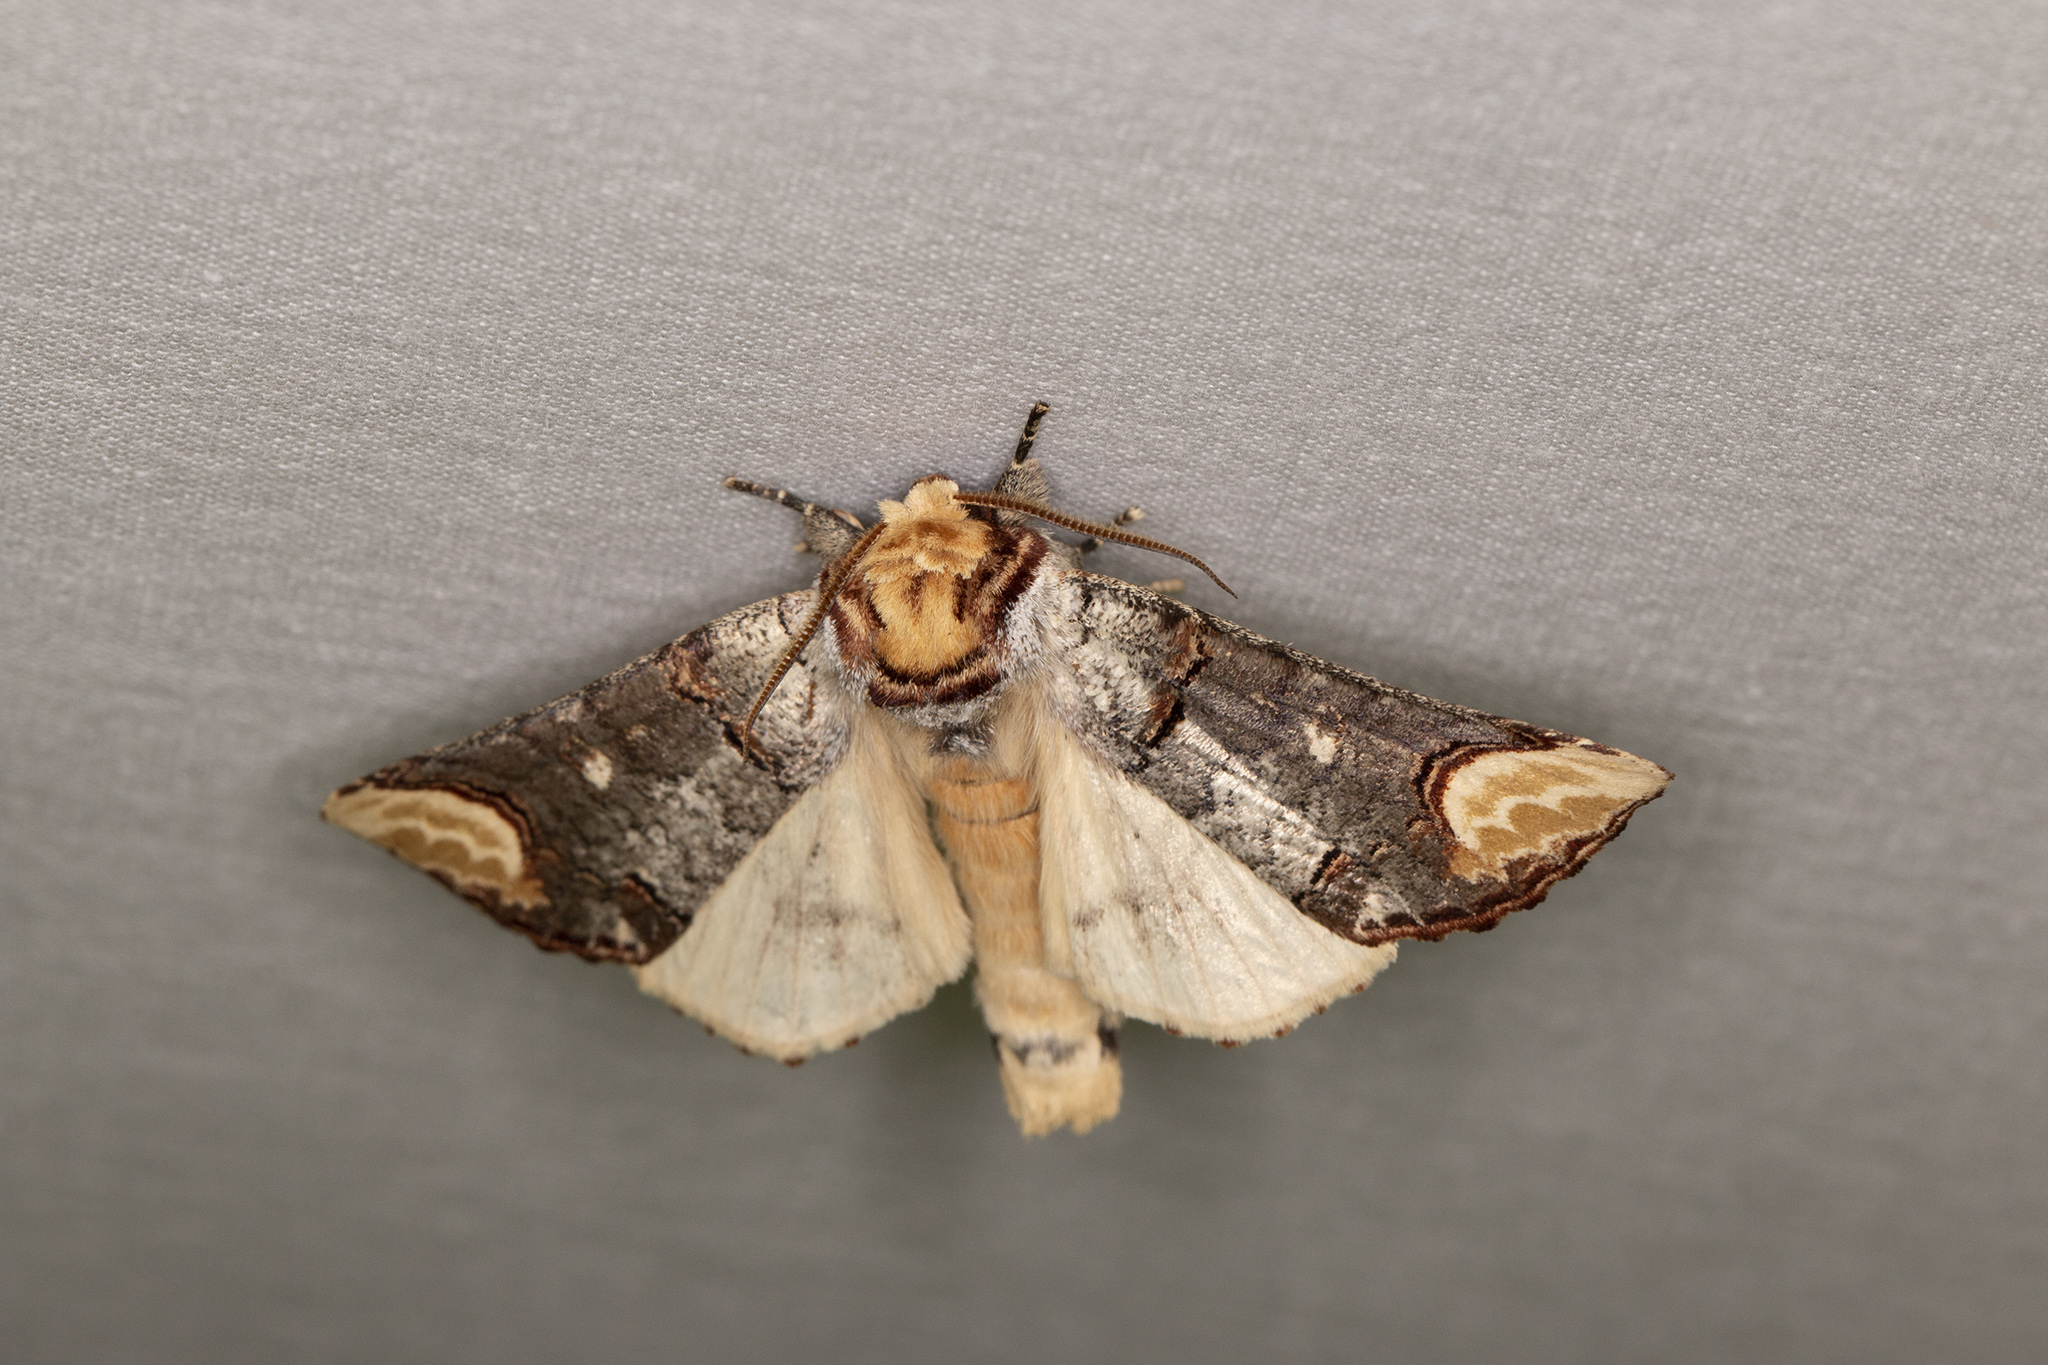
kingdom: Animalia
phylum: Arthropoda
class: Insecta
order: Lepidoptera
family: Notodontidae
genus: Phalera
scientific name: Phalera bucephala
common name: Buff-tip
